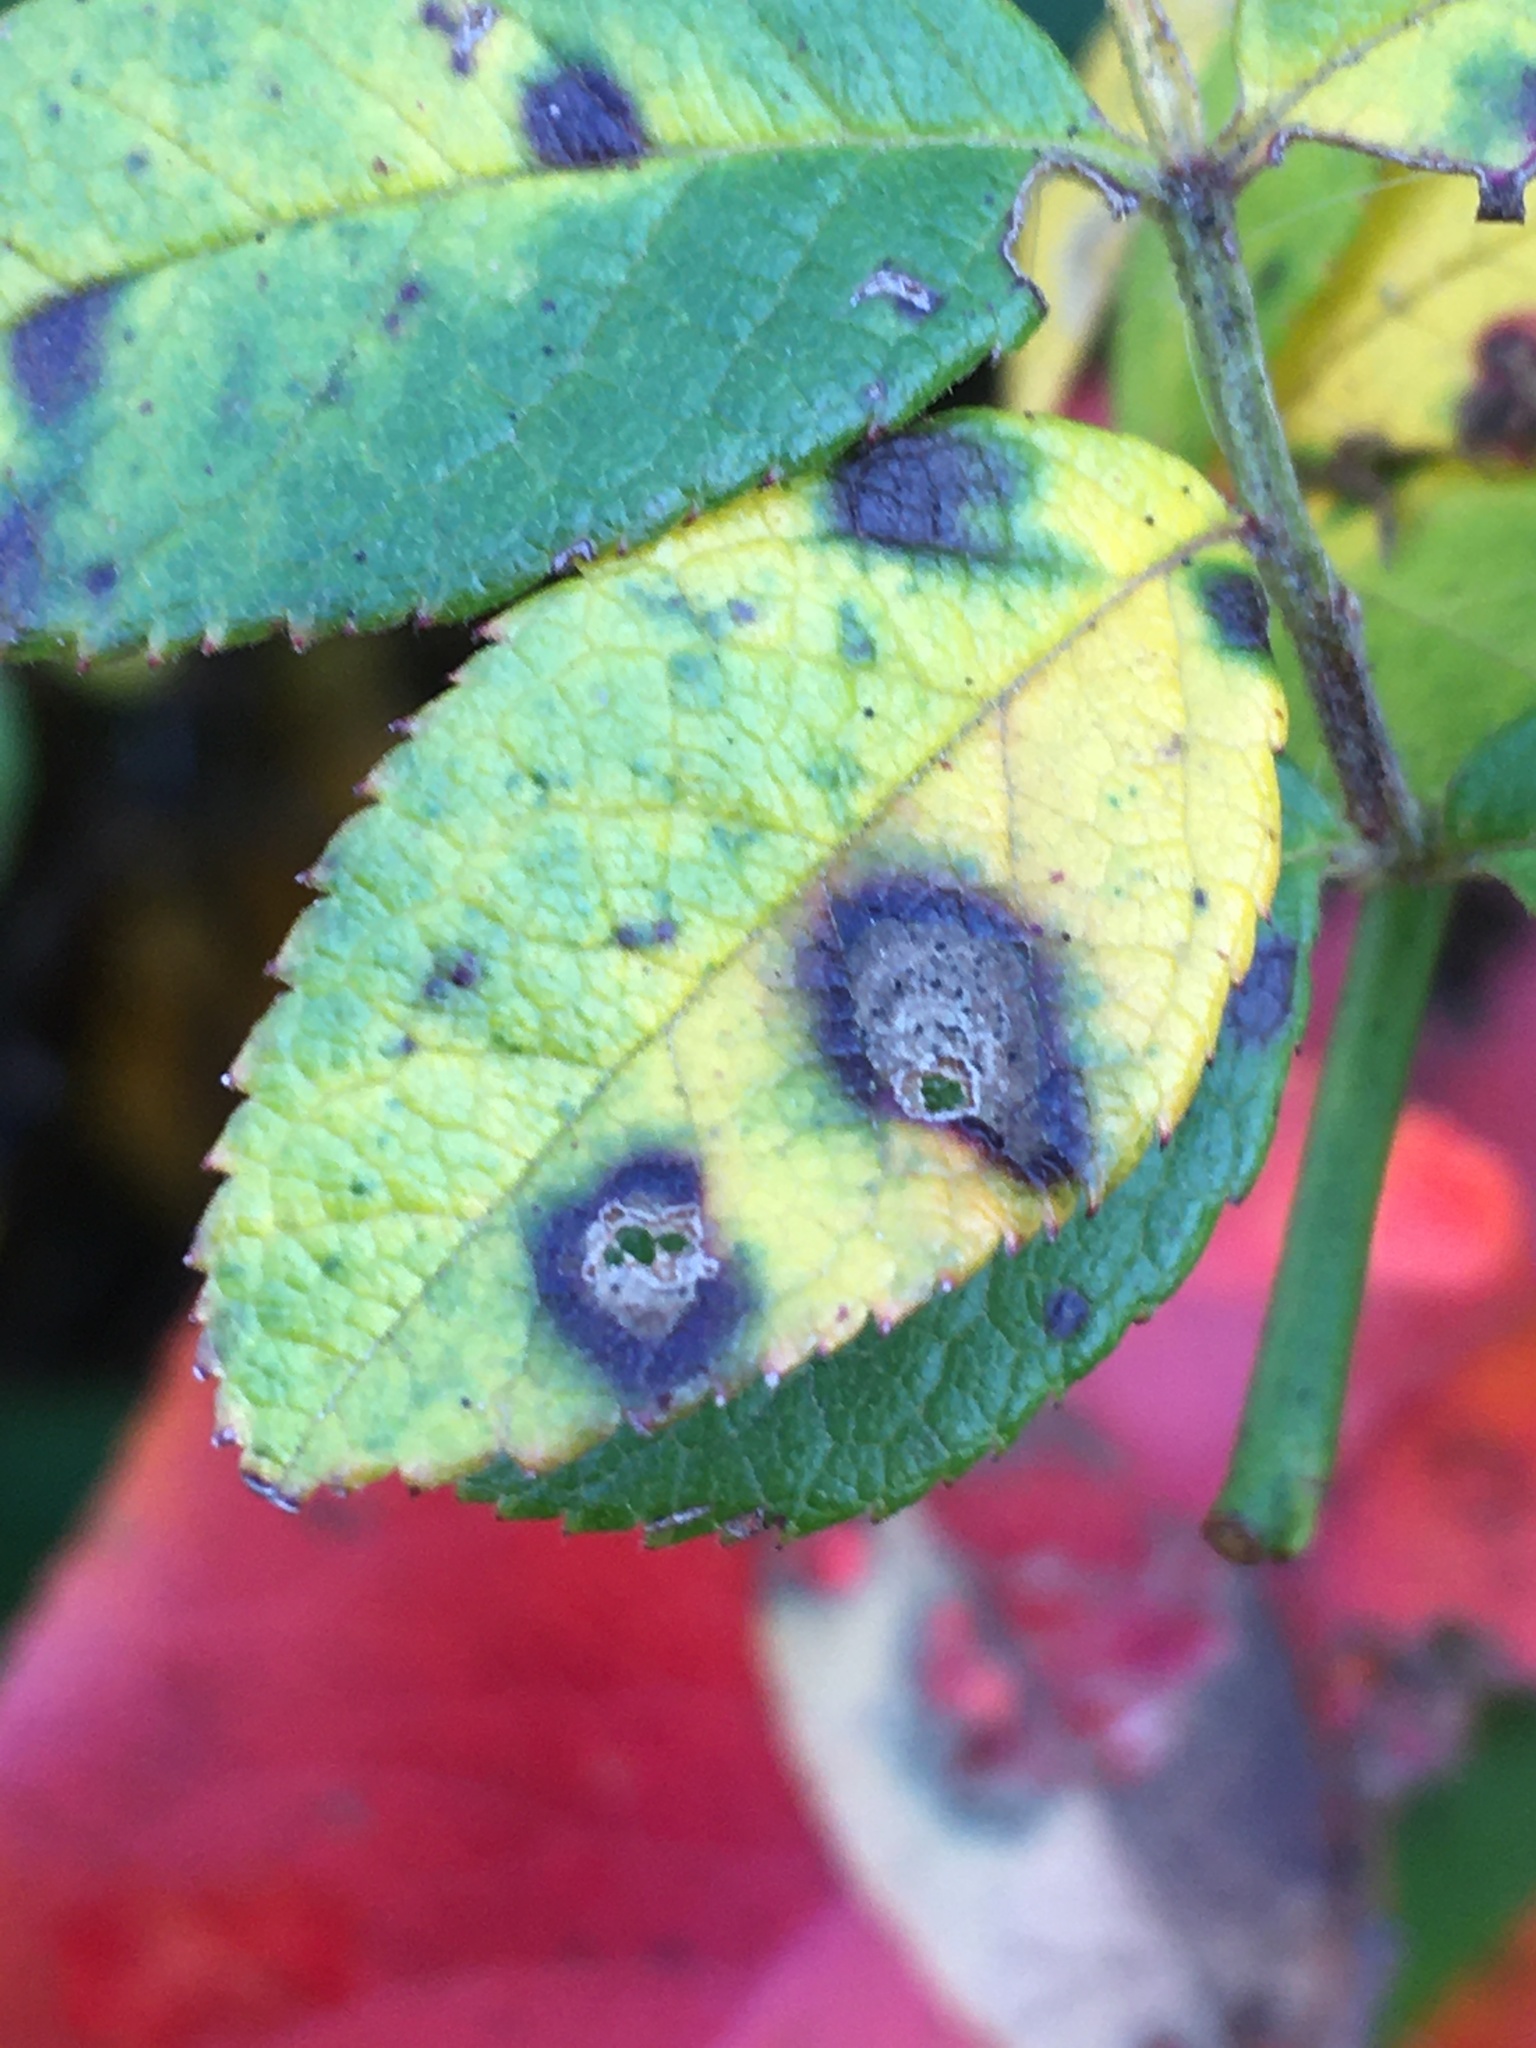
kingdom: Fungi
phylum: Ascomycota
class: Leotiomycetes
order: Helotiales
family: Drepanopezizaceae
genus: Diplocarpon
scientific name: Diplocarpon rosae
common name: Rose black-spot
